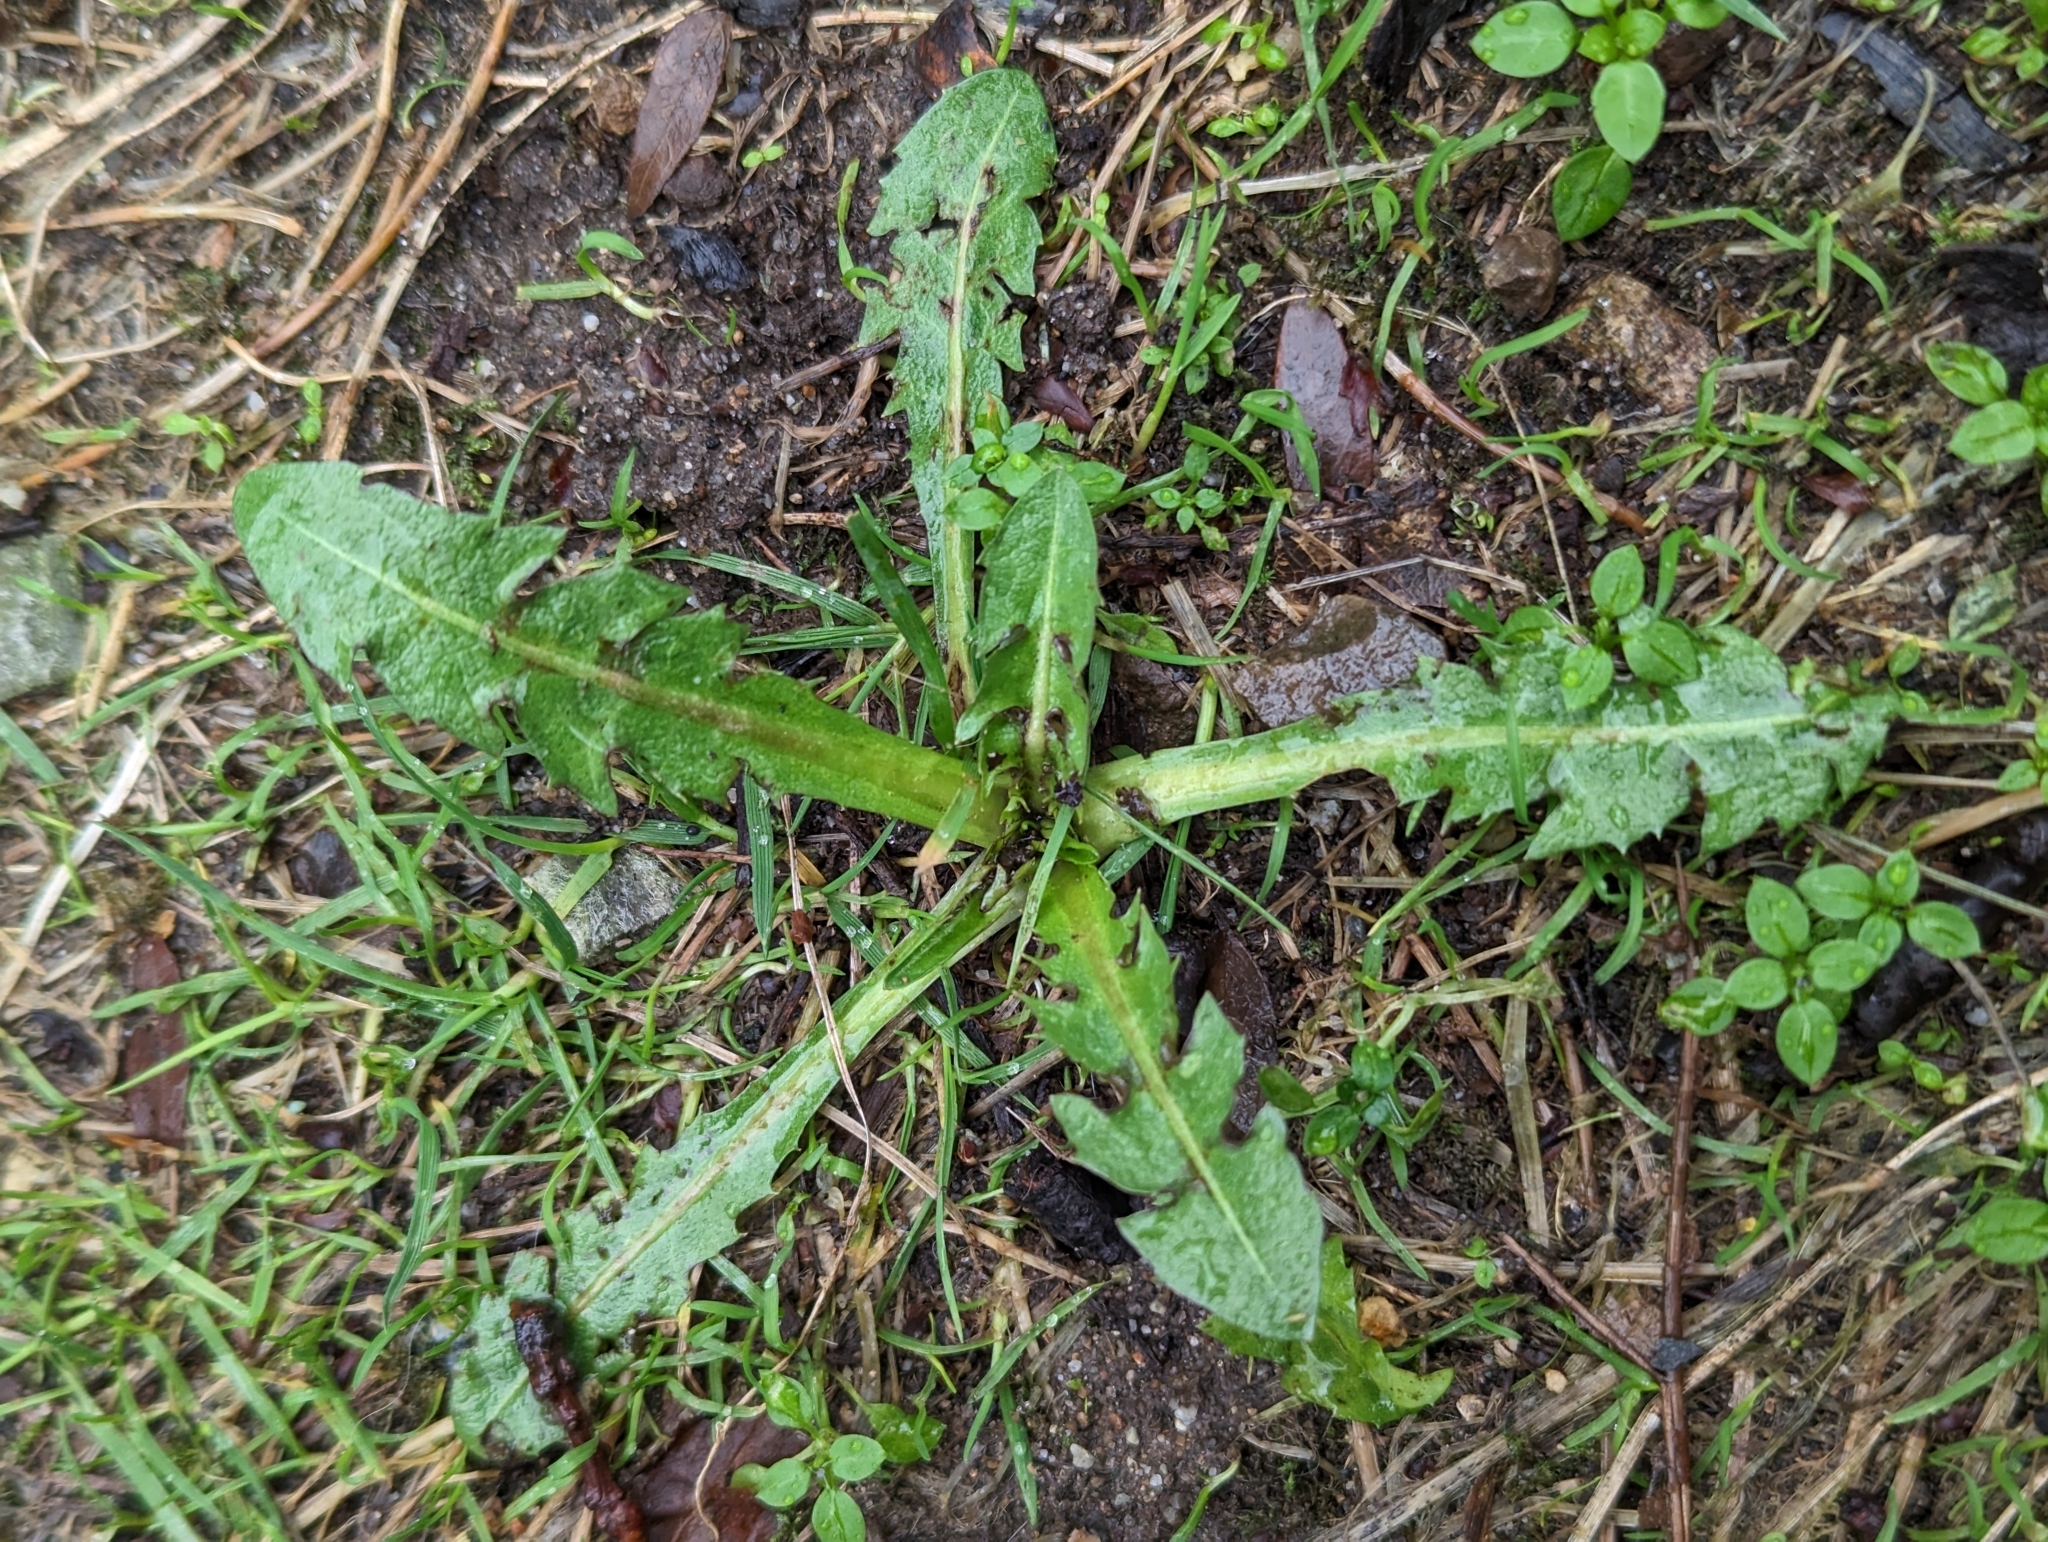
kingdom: Plantae
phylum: Tracheophyta
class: Magnoliopsida
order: Asterales
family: Asteraceae
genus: Taraxacum
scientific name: Taraxacum officinale
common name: Common dandelion
